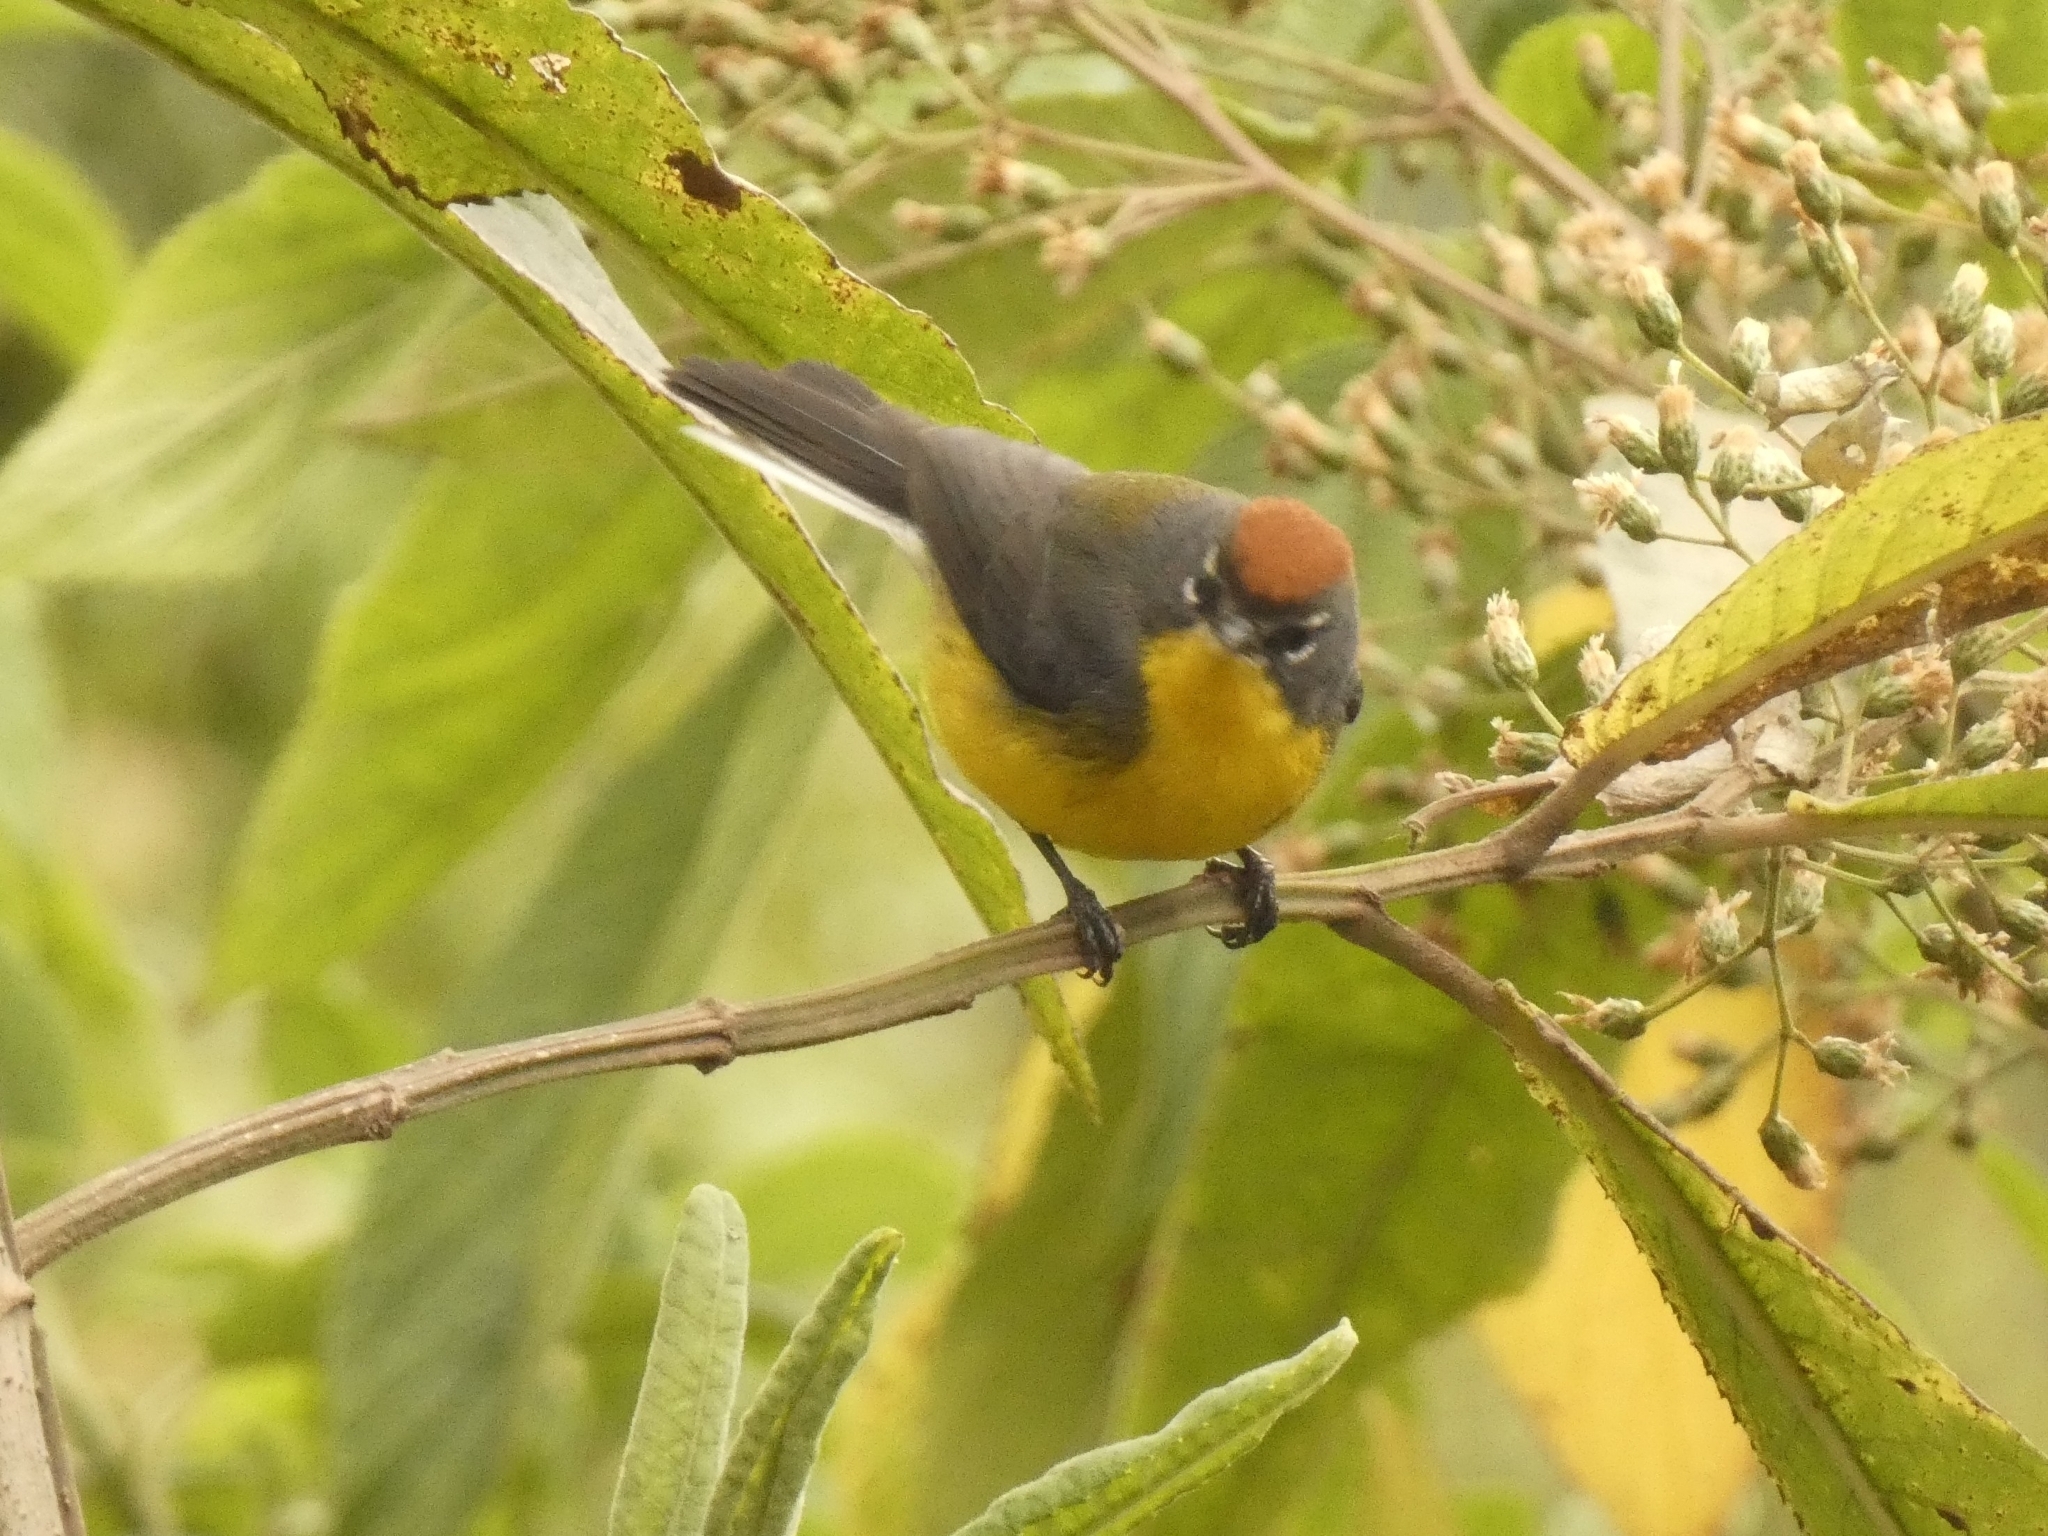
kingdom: Animalia
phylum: Chordata
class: Aves
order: Passeriformes
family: Parulidae
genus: Myioborus
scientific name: Myioborus brunniceps
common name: Brown-capped whitestart
